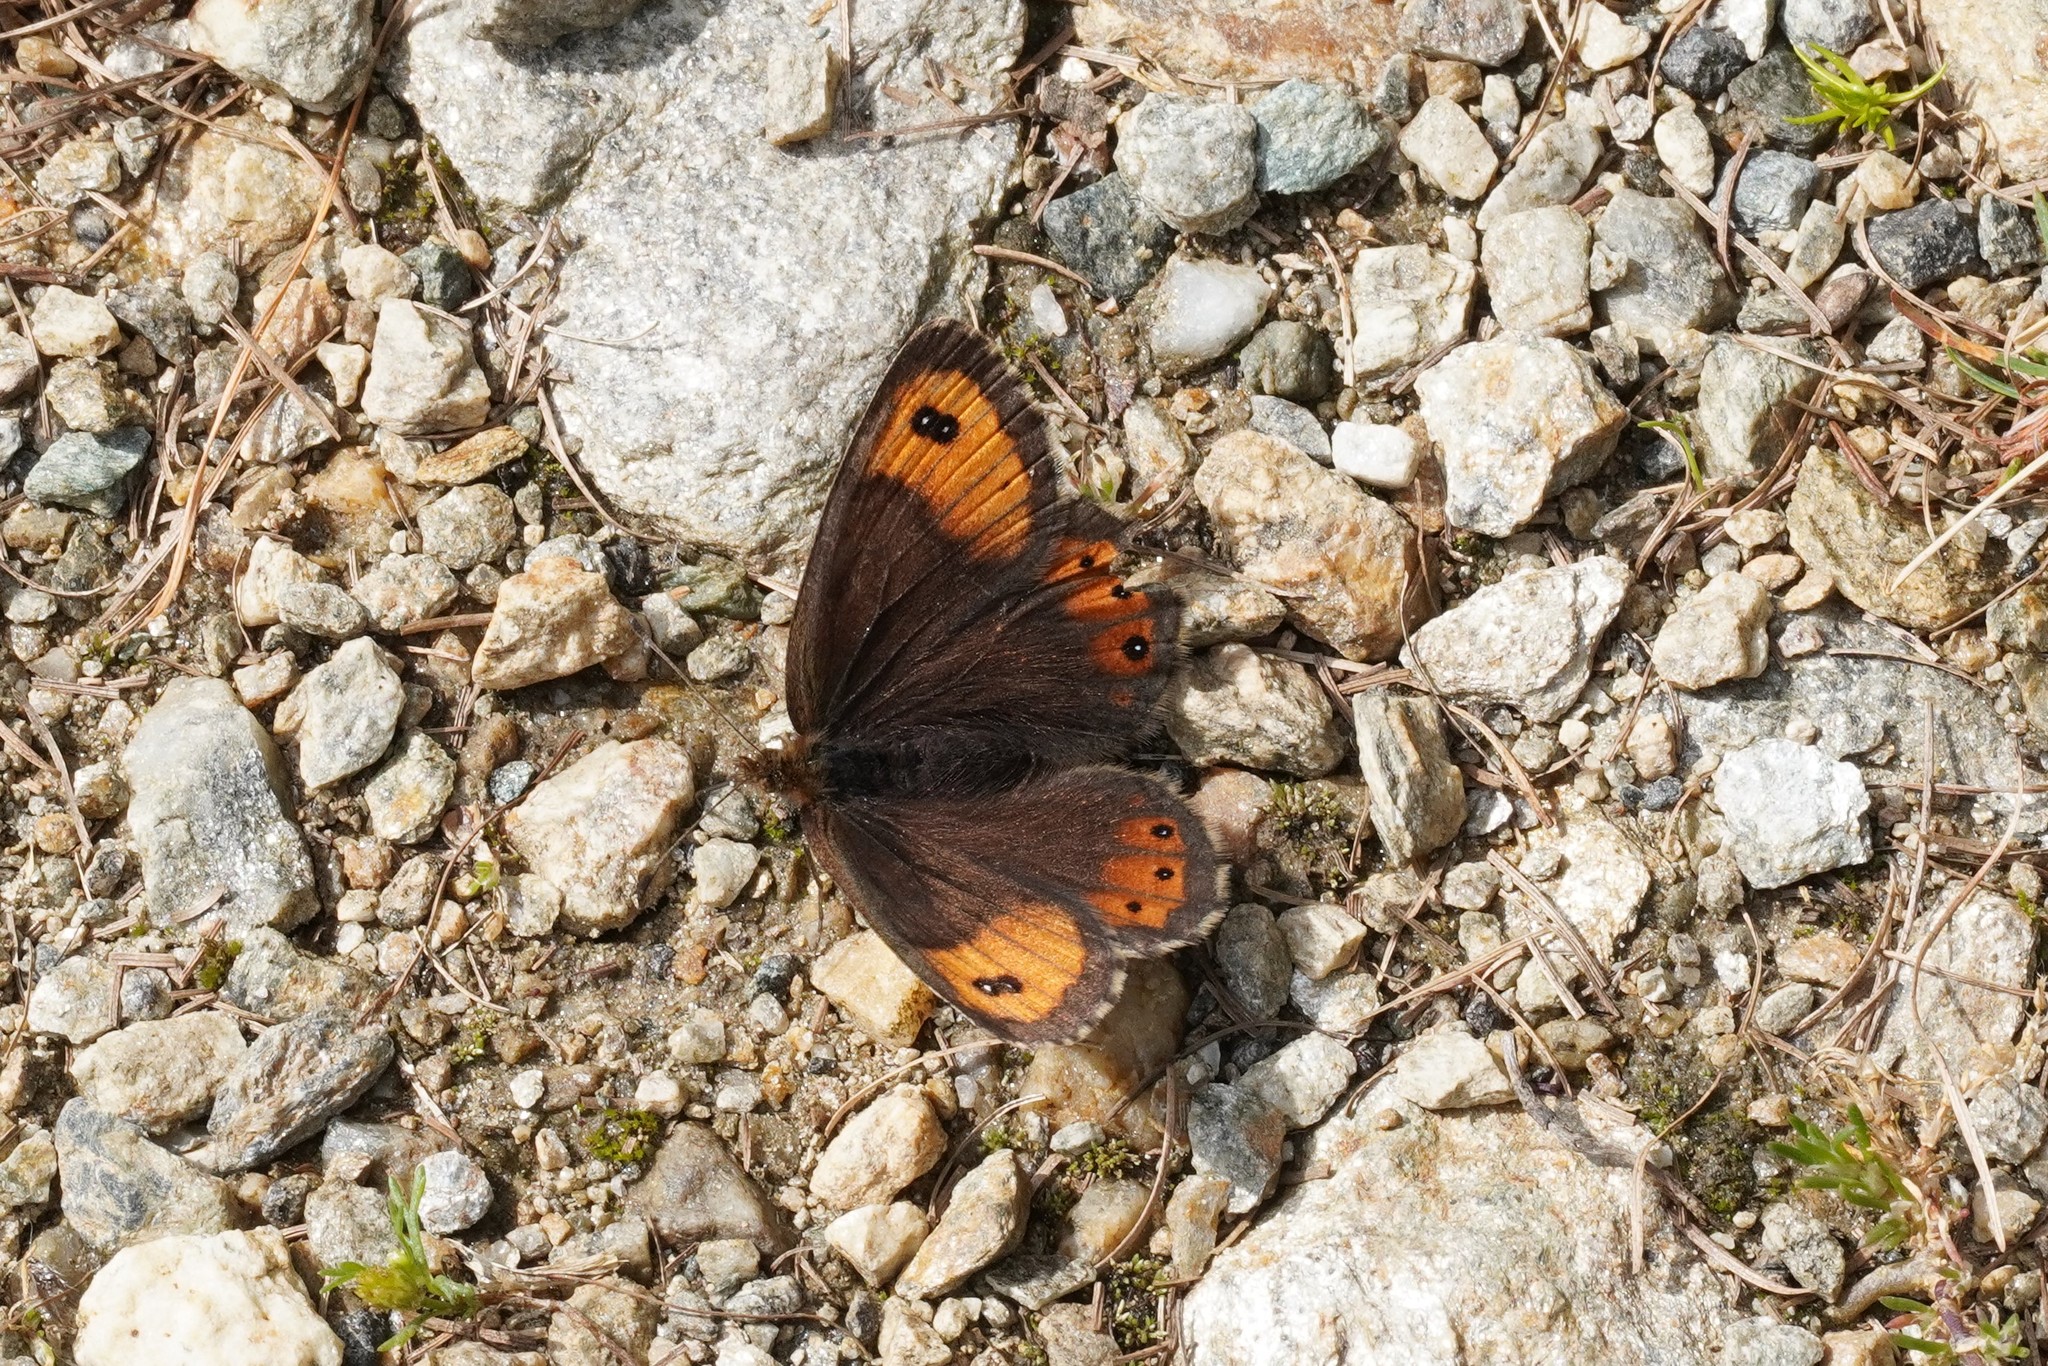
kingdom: Animalia
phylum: Arthropoda
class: Insecta
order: Lepidoptera
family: Nymphalidae
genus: Erebia
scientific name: Erebia montanus
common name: Marbled ringlet
